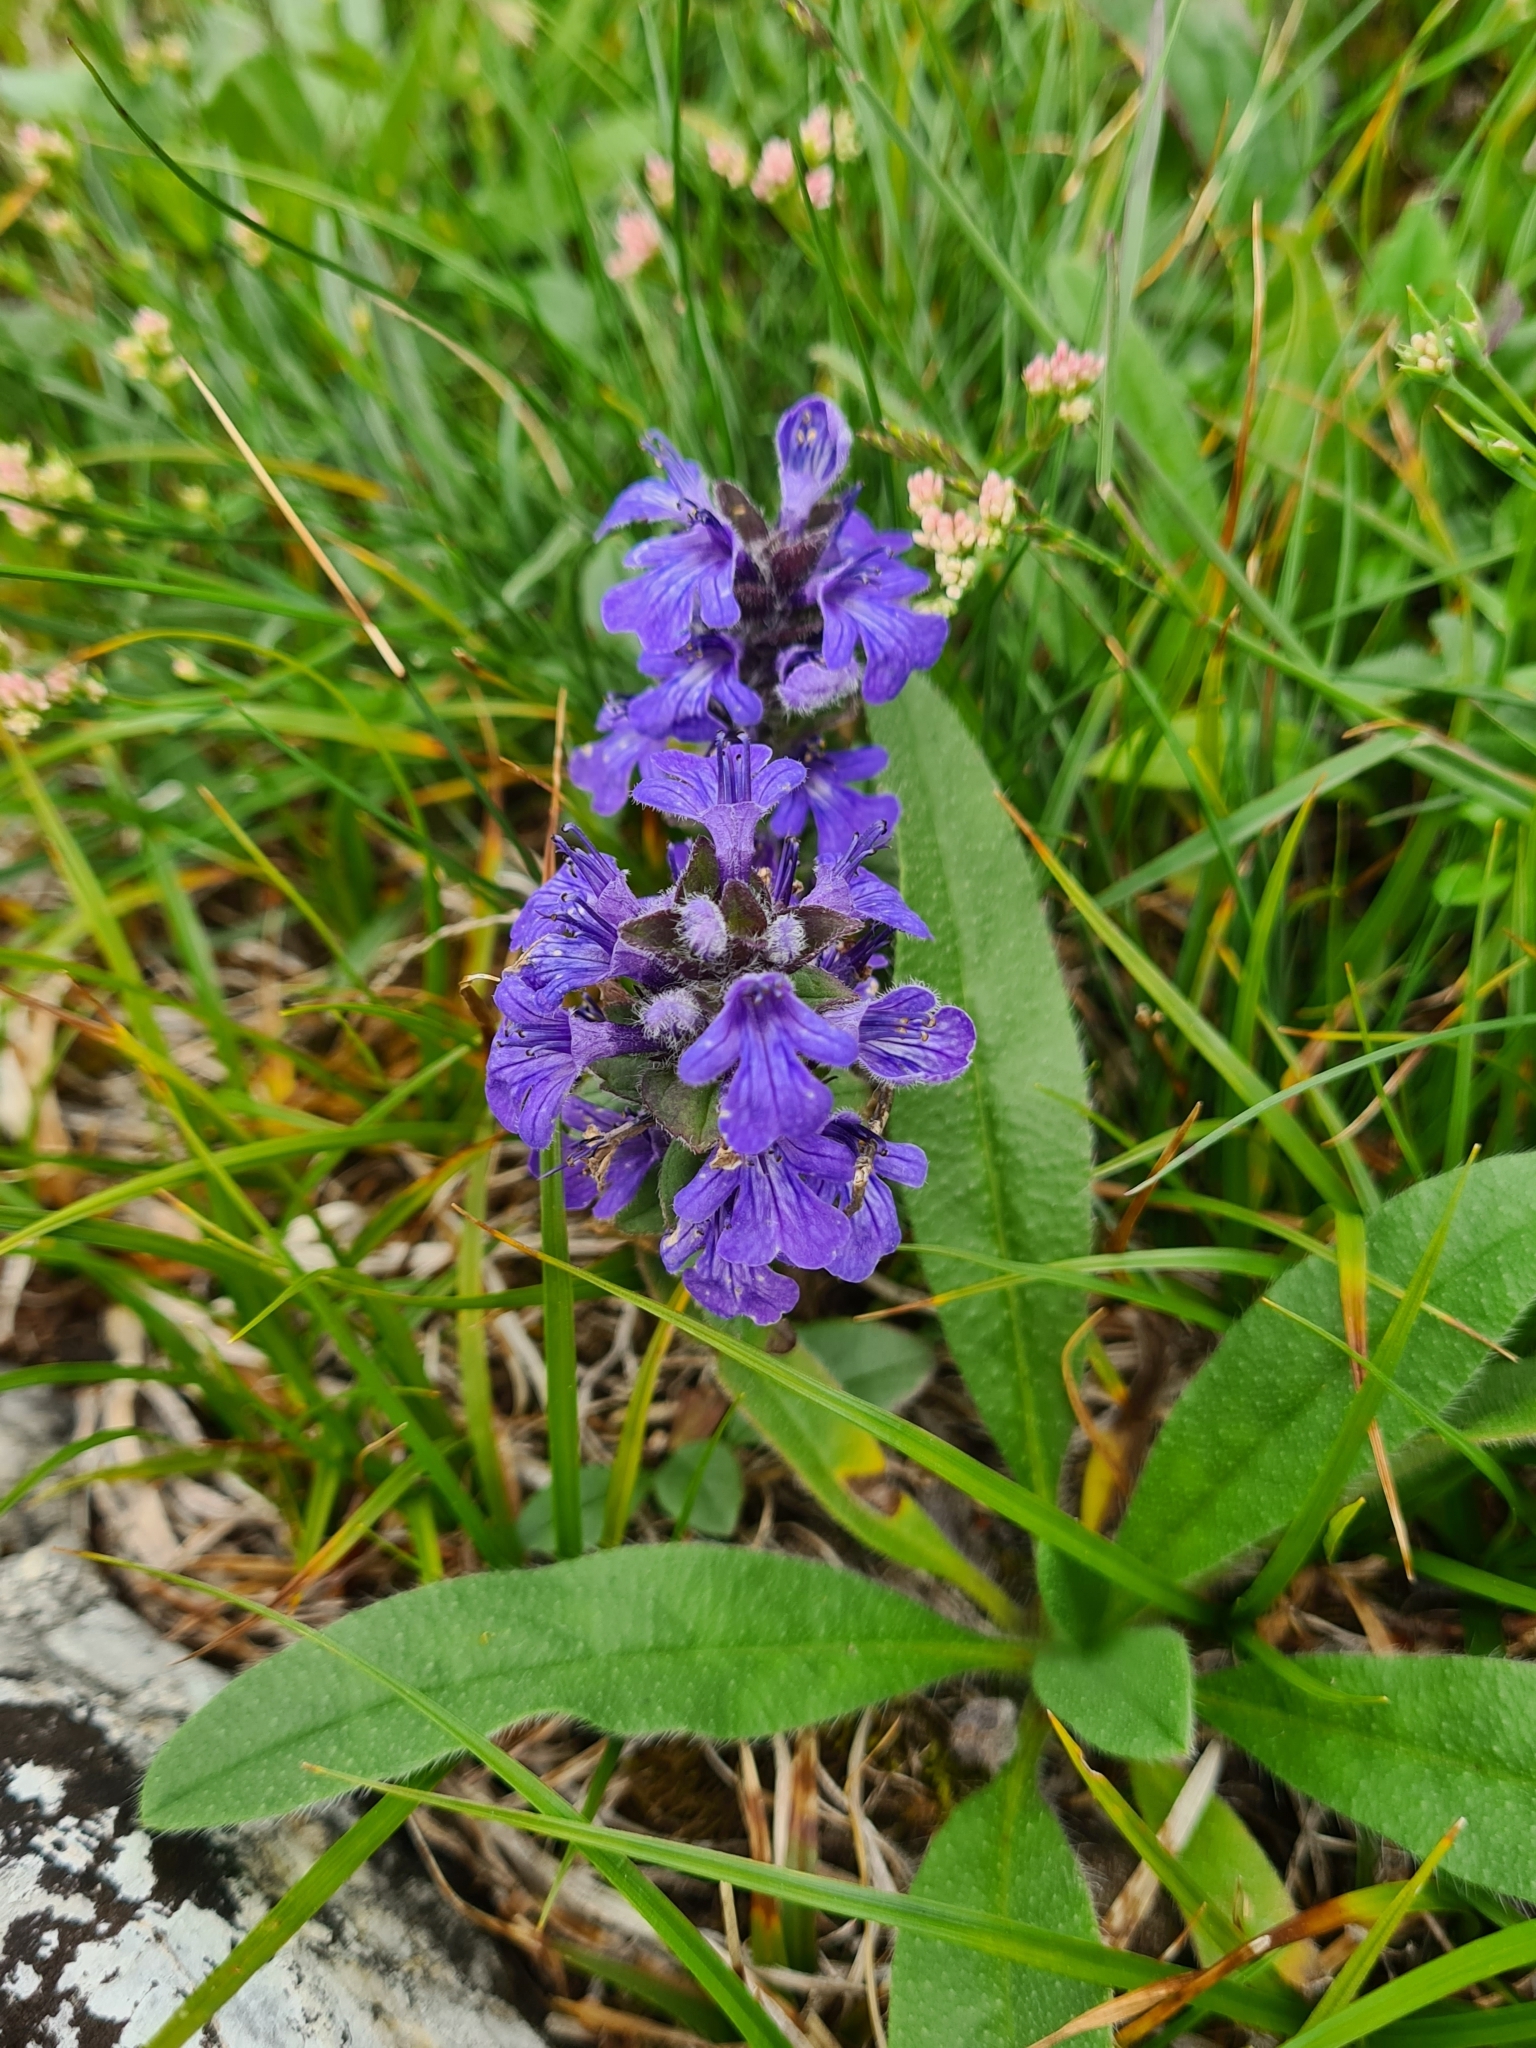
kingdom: Plantae
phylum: Tracheophyta
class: Magnoliopsida
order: Lamiales
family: Lamiaceae
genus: Ajuga
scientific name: Ajuga genevensis
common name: Blue bugle
